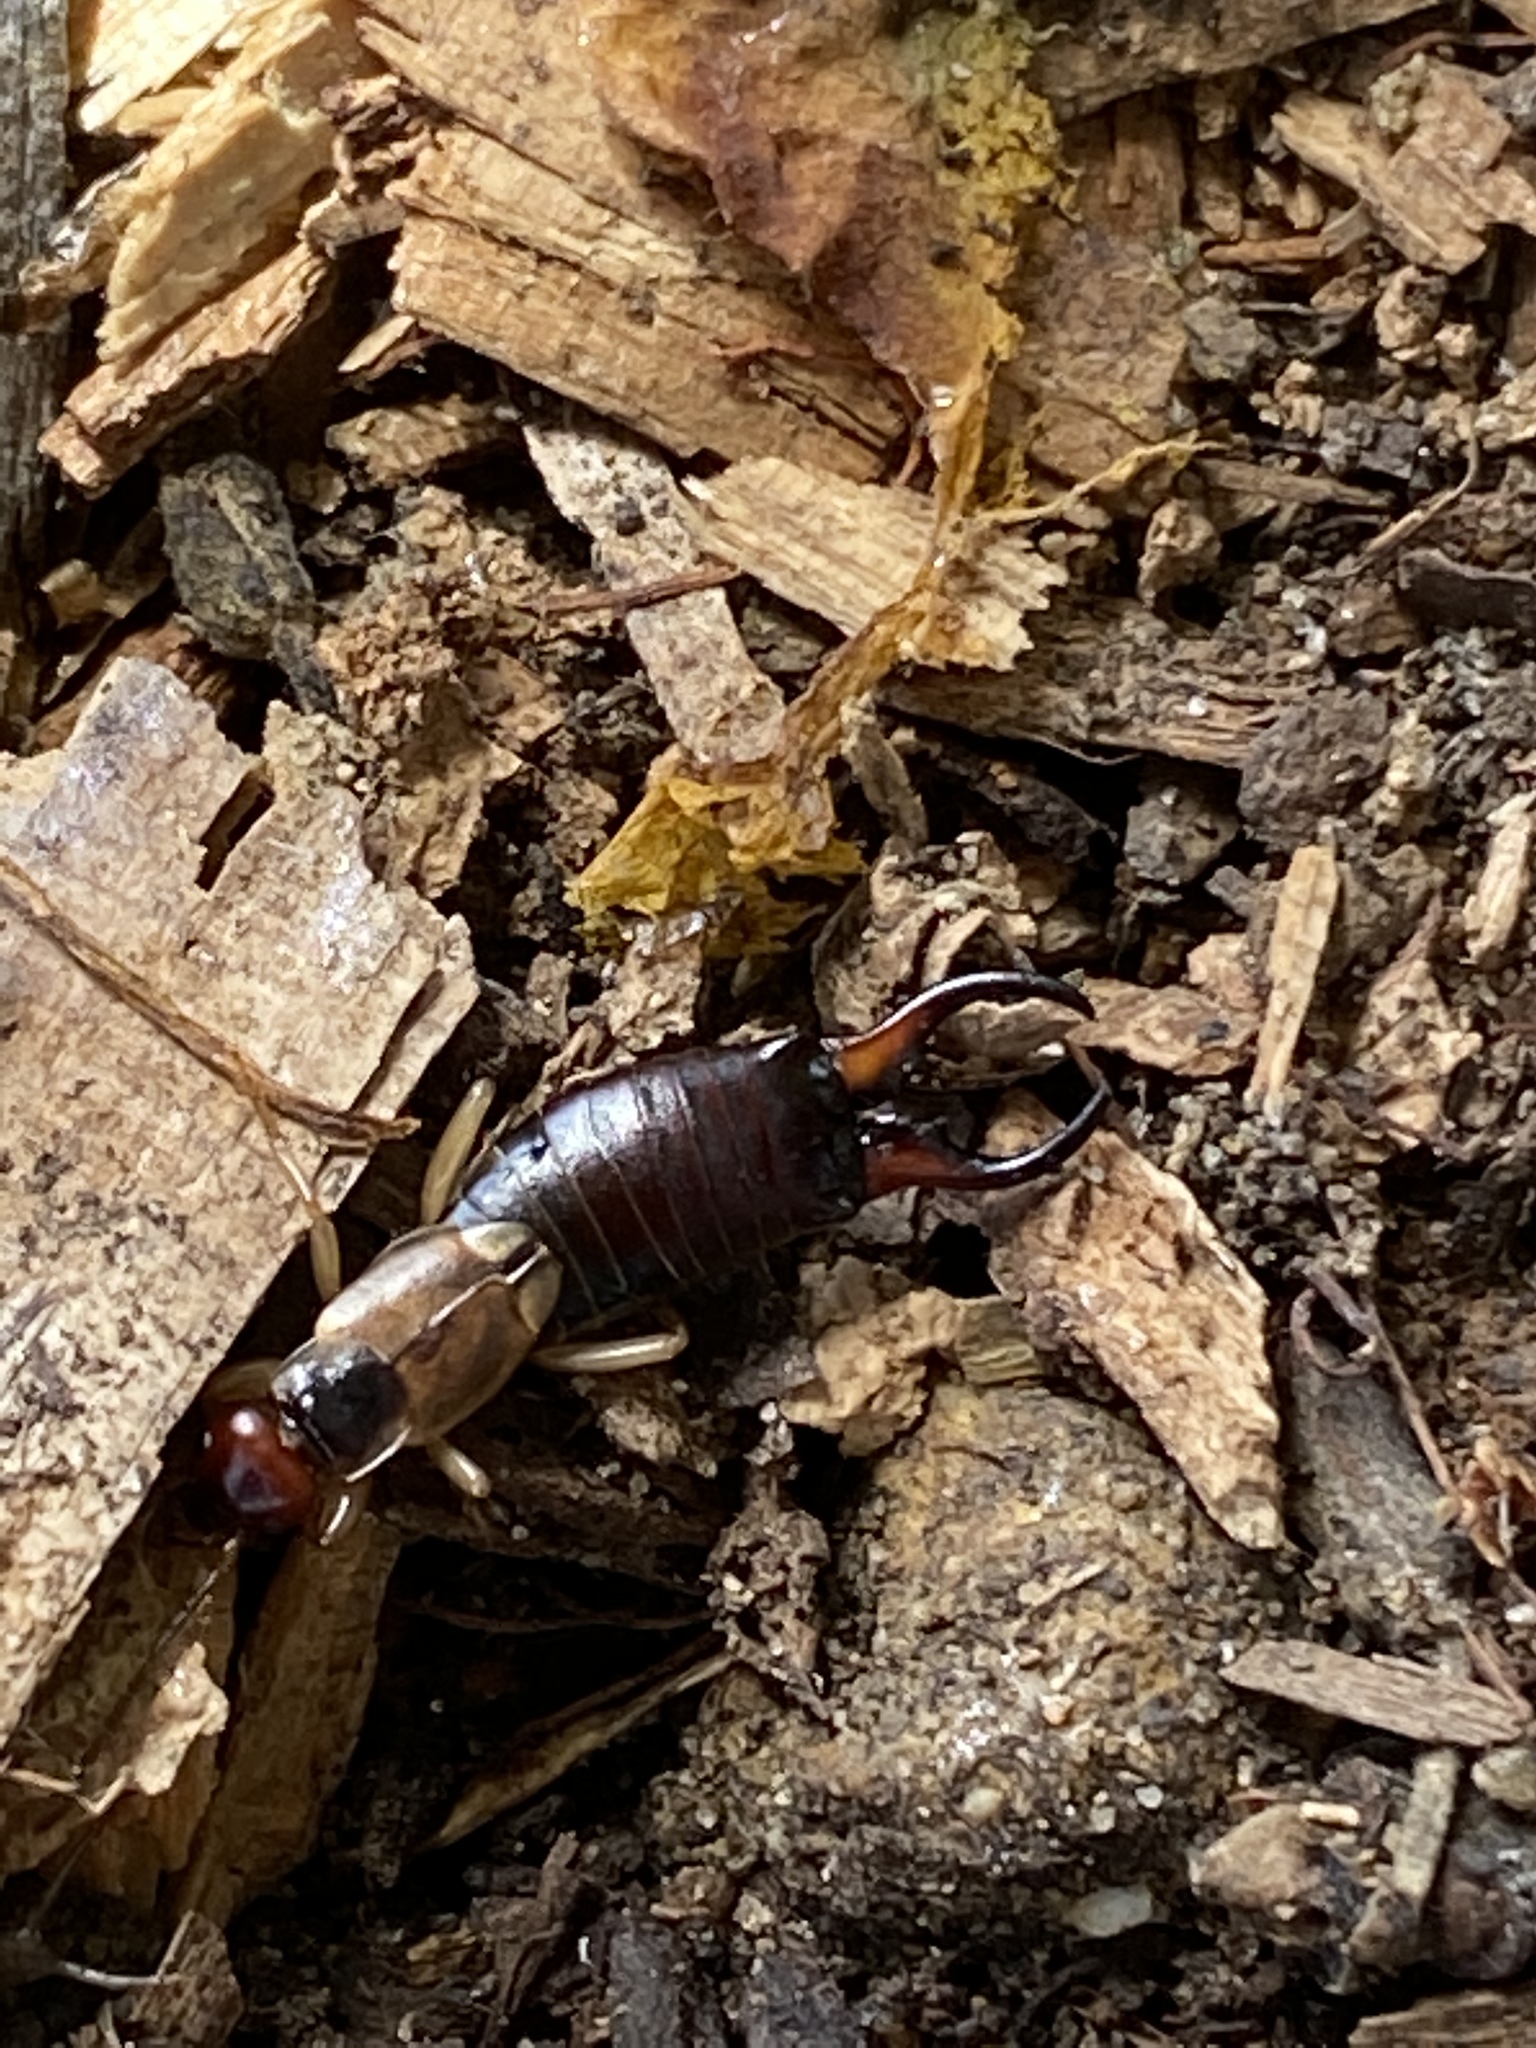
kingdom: Animalia
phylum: Arthropoda
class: Insecta
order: Dermaptera
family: Forficulidae
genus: Forficula
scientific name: Forficula
